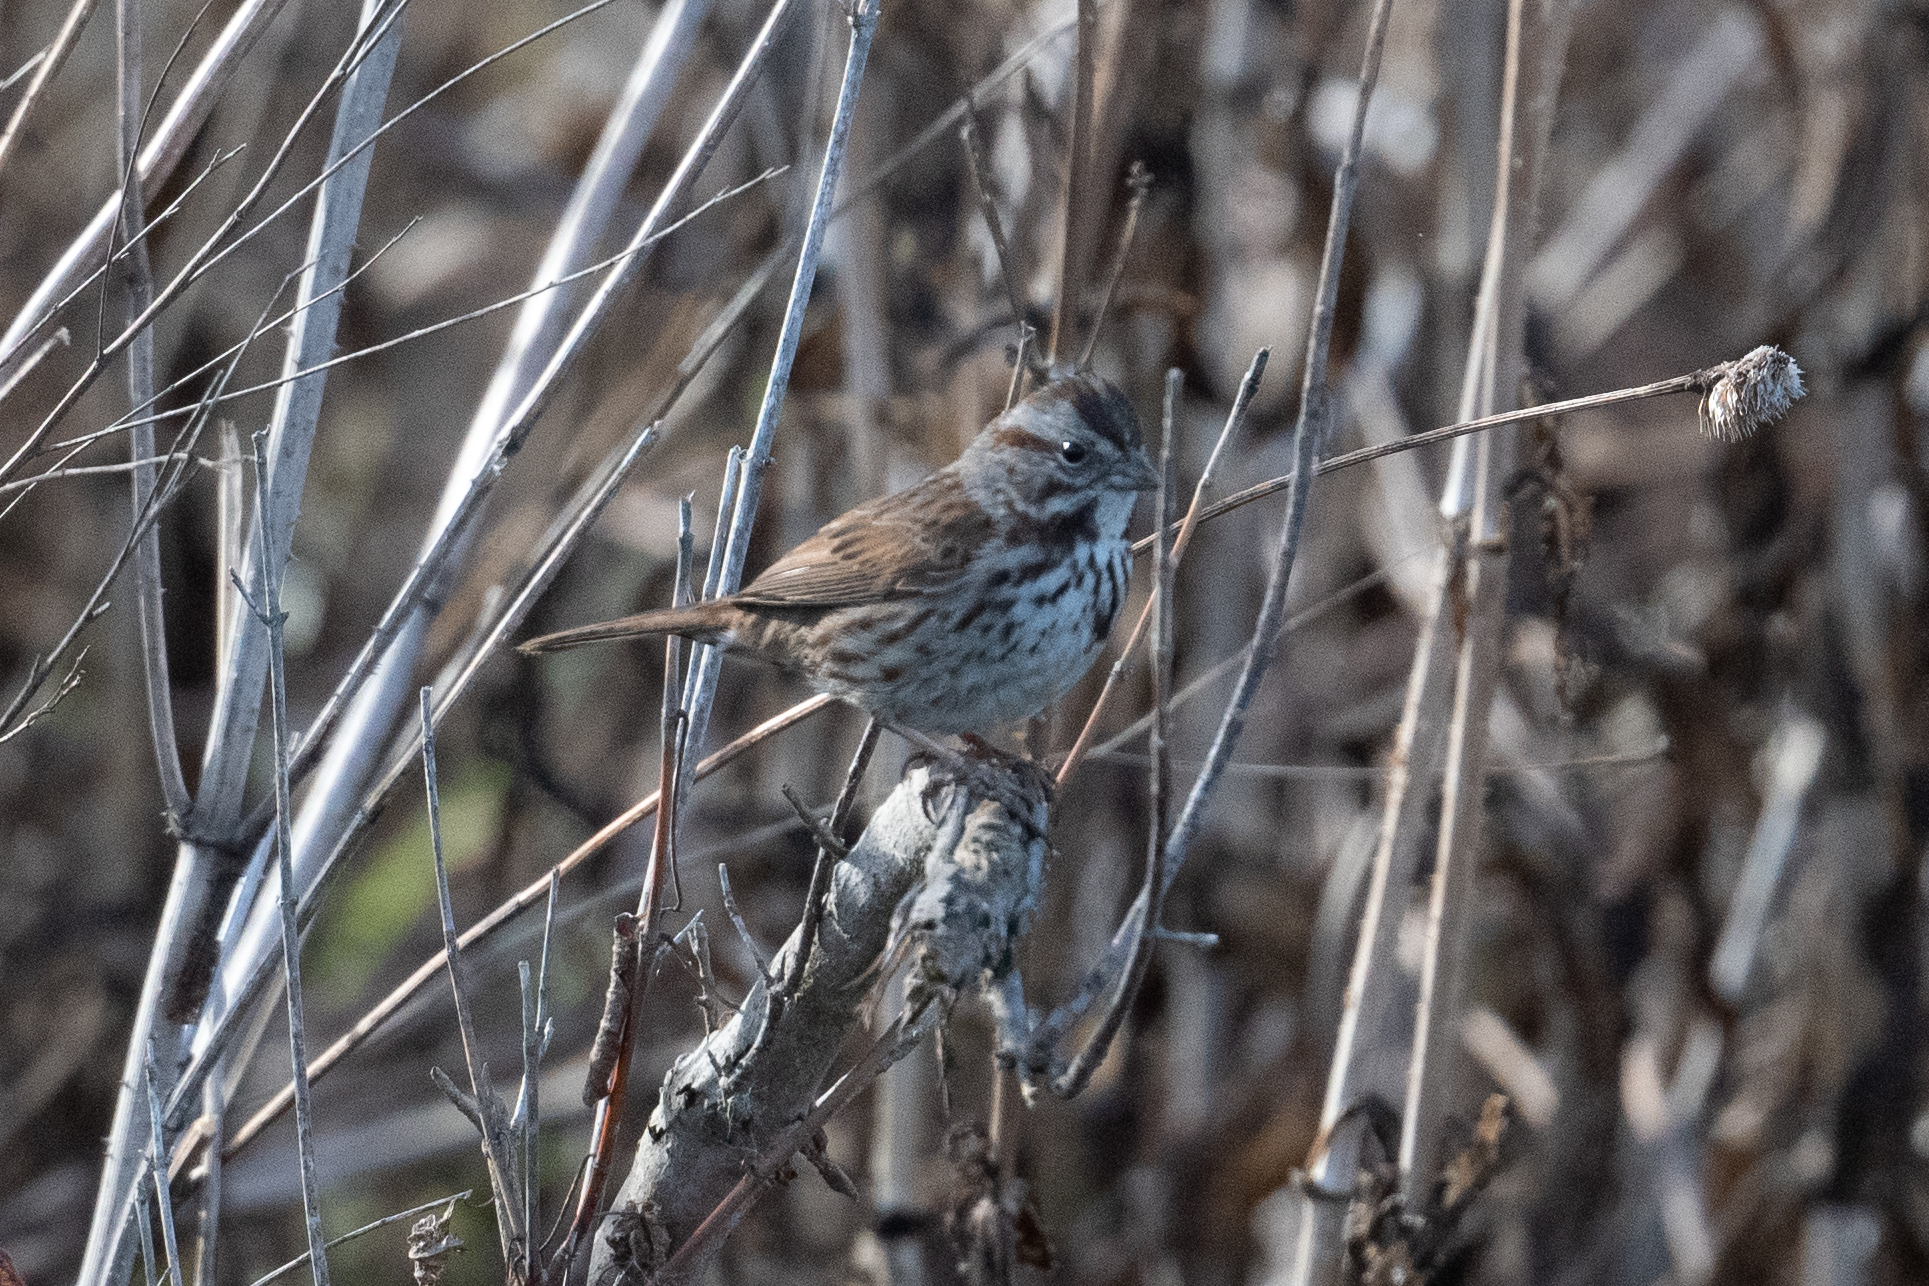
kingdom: Animalia
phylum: Chordata
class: Aves
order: Passeriformes
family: Passerellidae
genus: Melospiza
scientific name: Melospiza melodia
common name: Song sparrow
